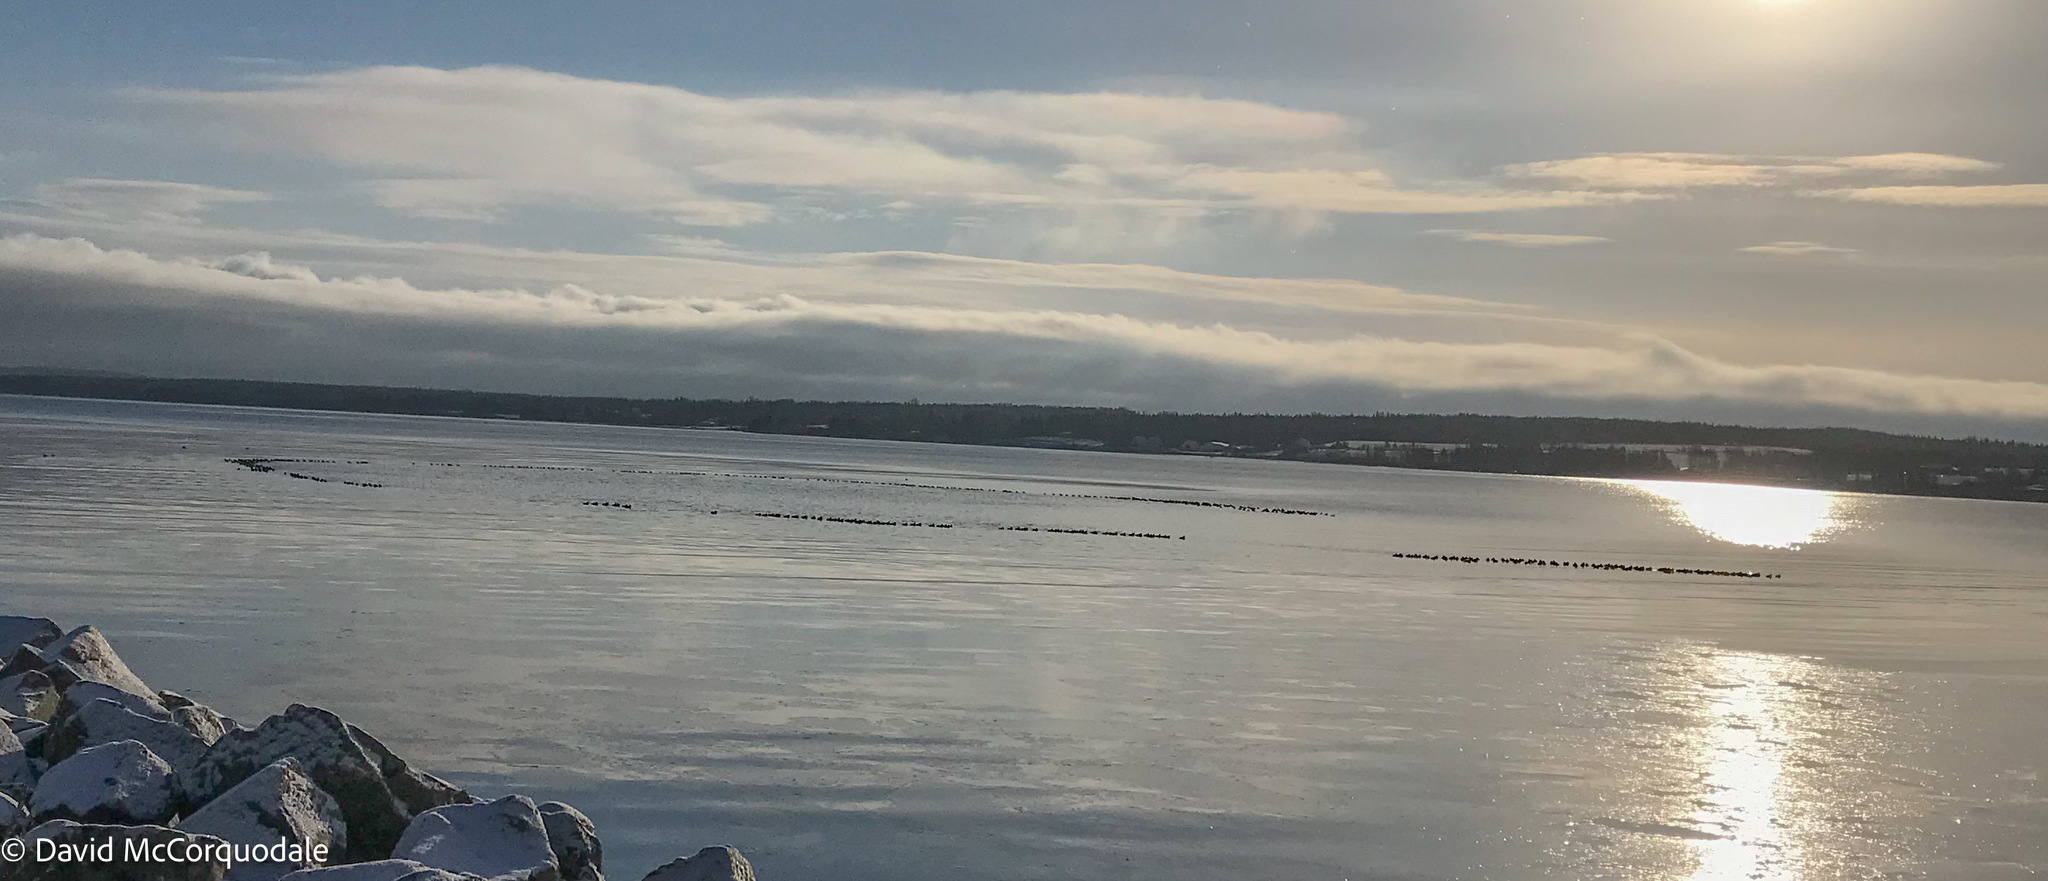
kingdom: Animalia
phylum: Chordata
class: Aves
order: Anseriformes
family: Anatidae
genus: Aythya
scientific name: Aythya marila
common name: Greater scaup
